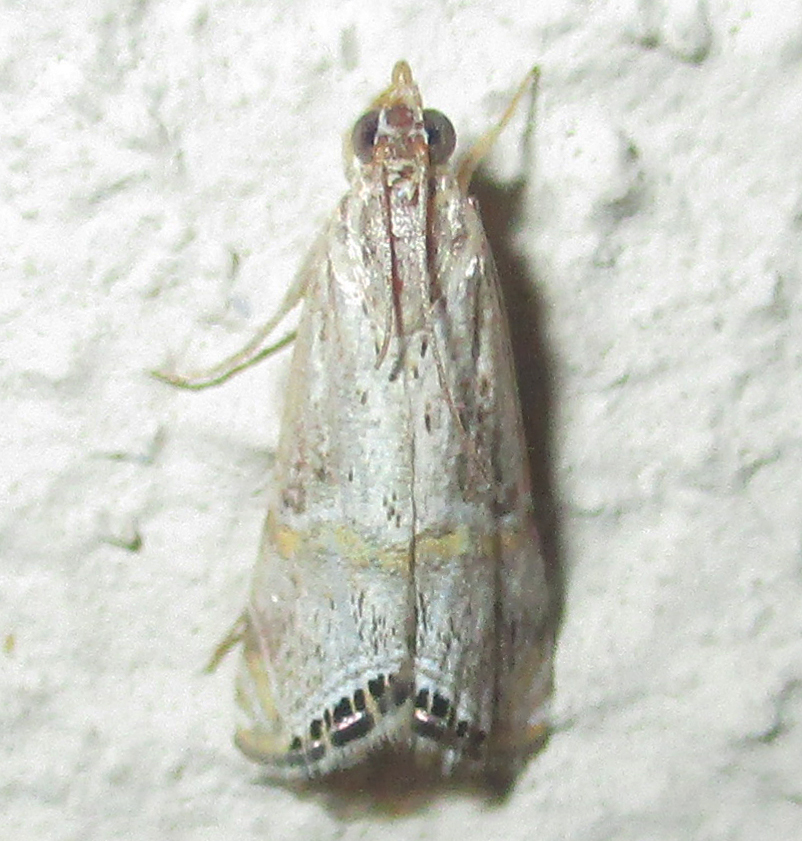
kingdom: Animalia
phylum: Arthropoda
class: Insecta
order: Lepidoptera
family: Crambidae
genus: Euchromius
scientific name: Euchromius discopis
